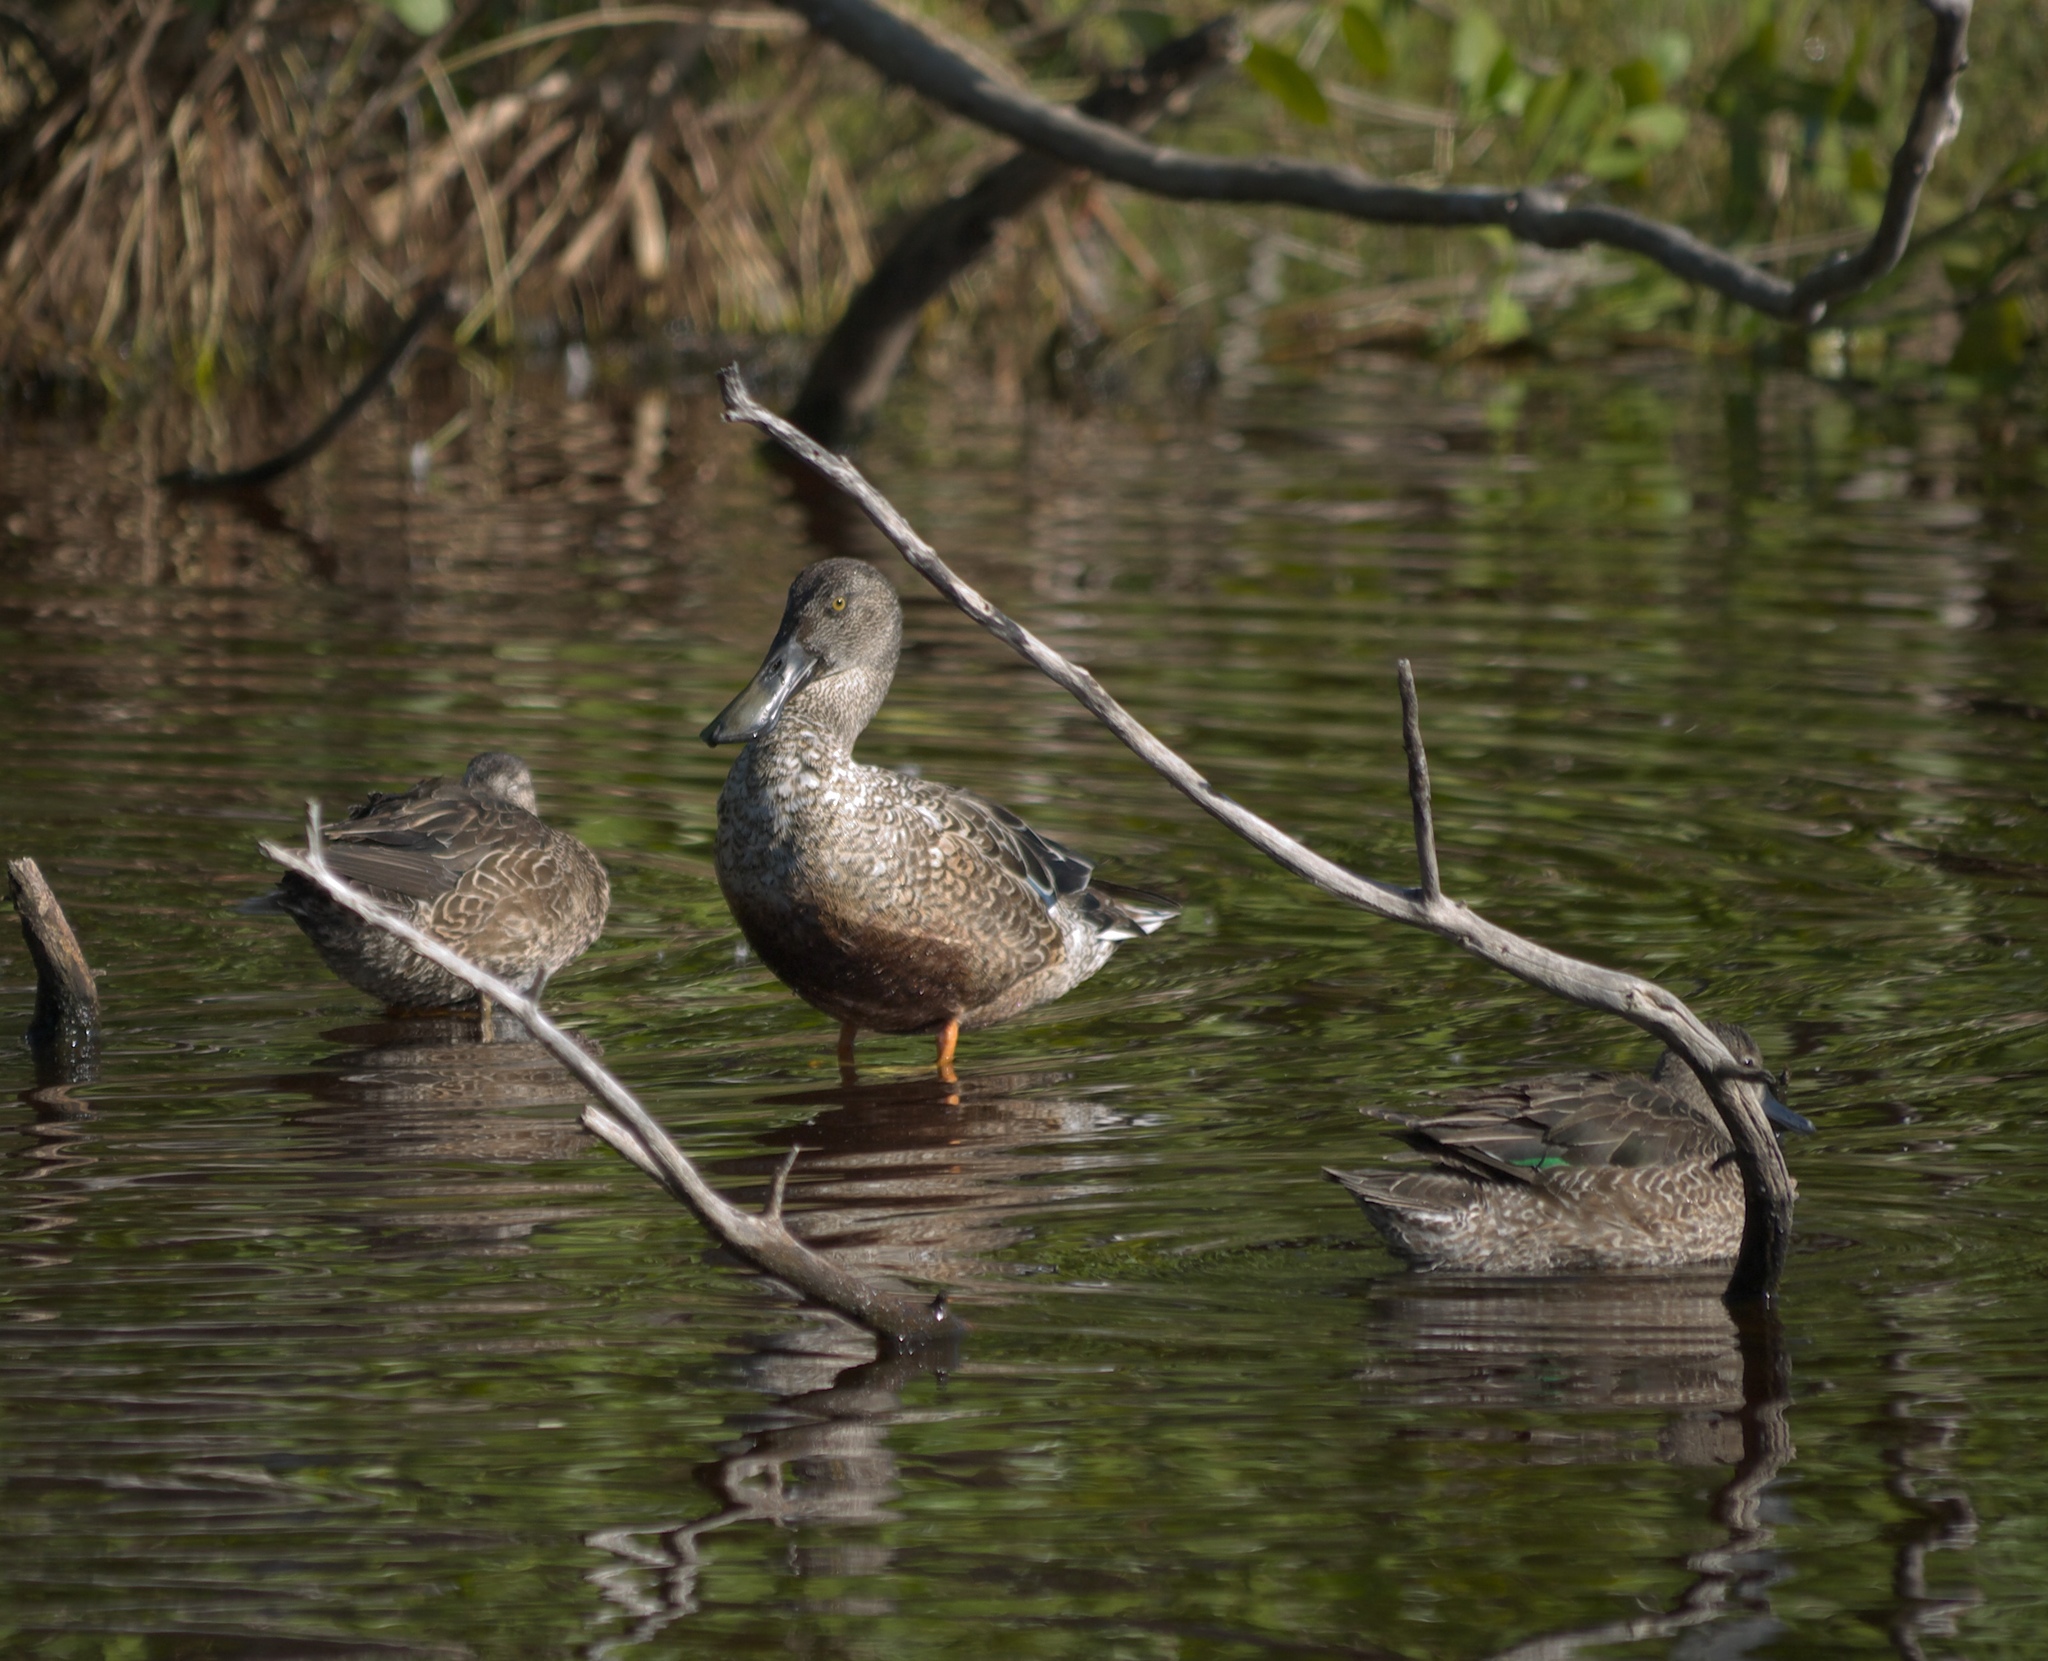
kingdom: Animalia
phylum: Chordata
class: Aves
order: Anseriformes
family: Anatidae
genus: Anas
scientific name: Anas crecca
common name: Eurasian teal
